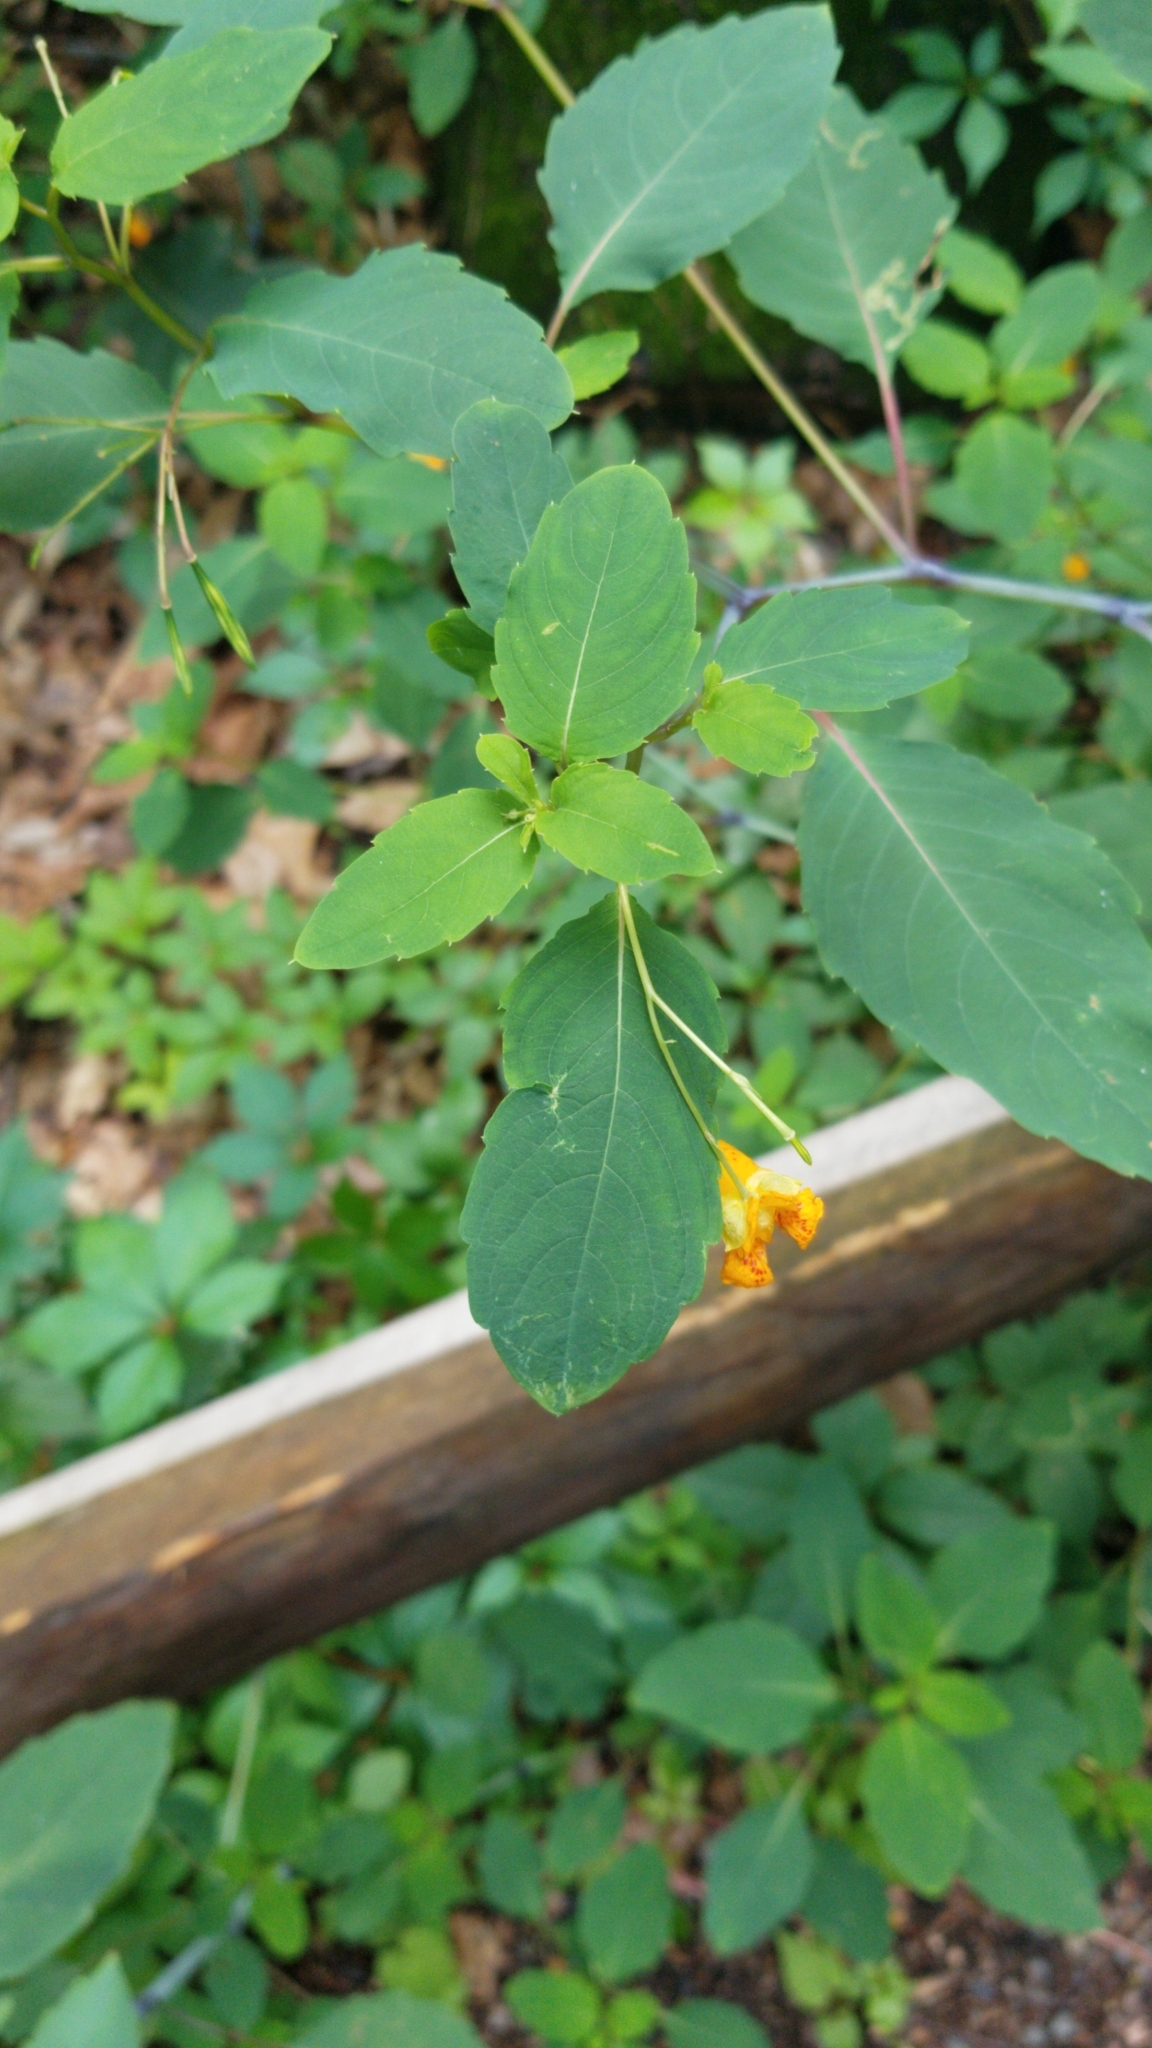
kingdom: Plantae
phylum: Tracheophyta
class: Magnoliopsida
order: Ericales
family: Balsaminaceae
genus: Impatiens
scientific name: Impatiens capensis
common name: Orange balsam
